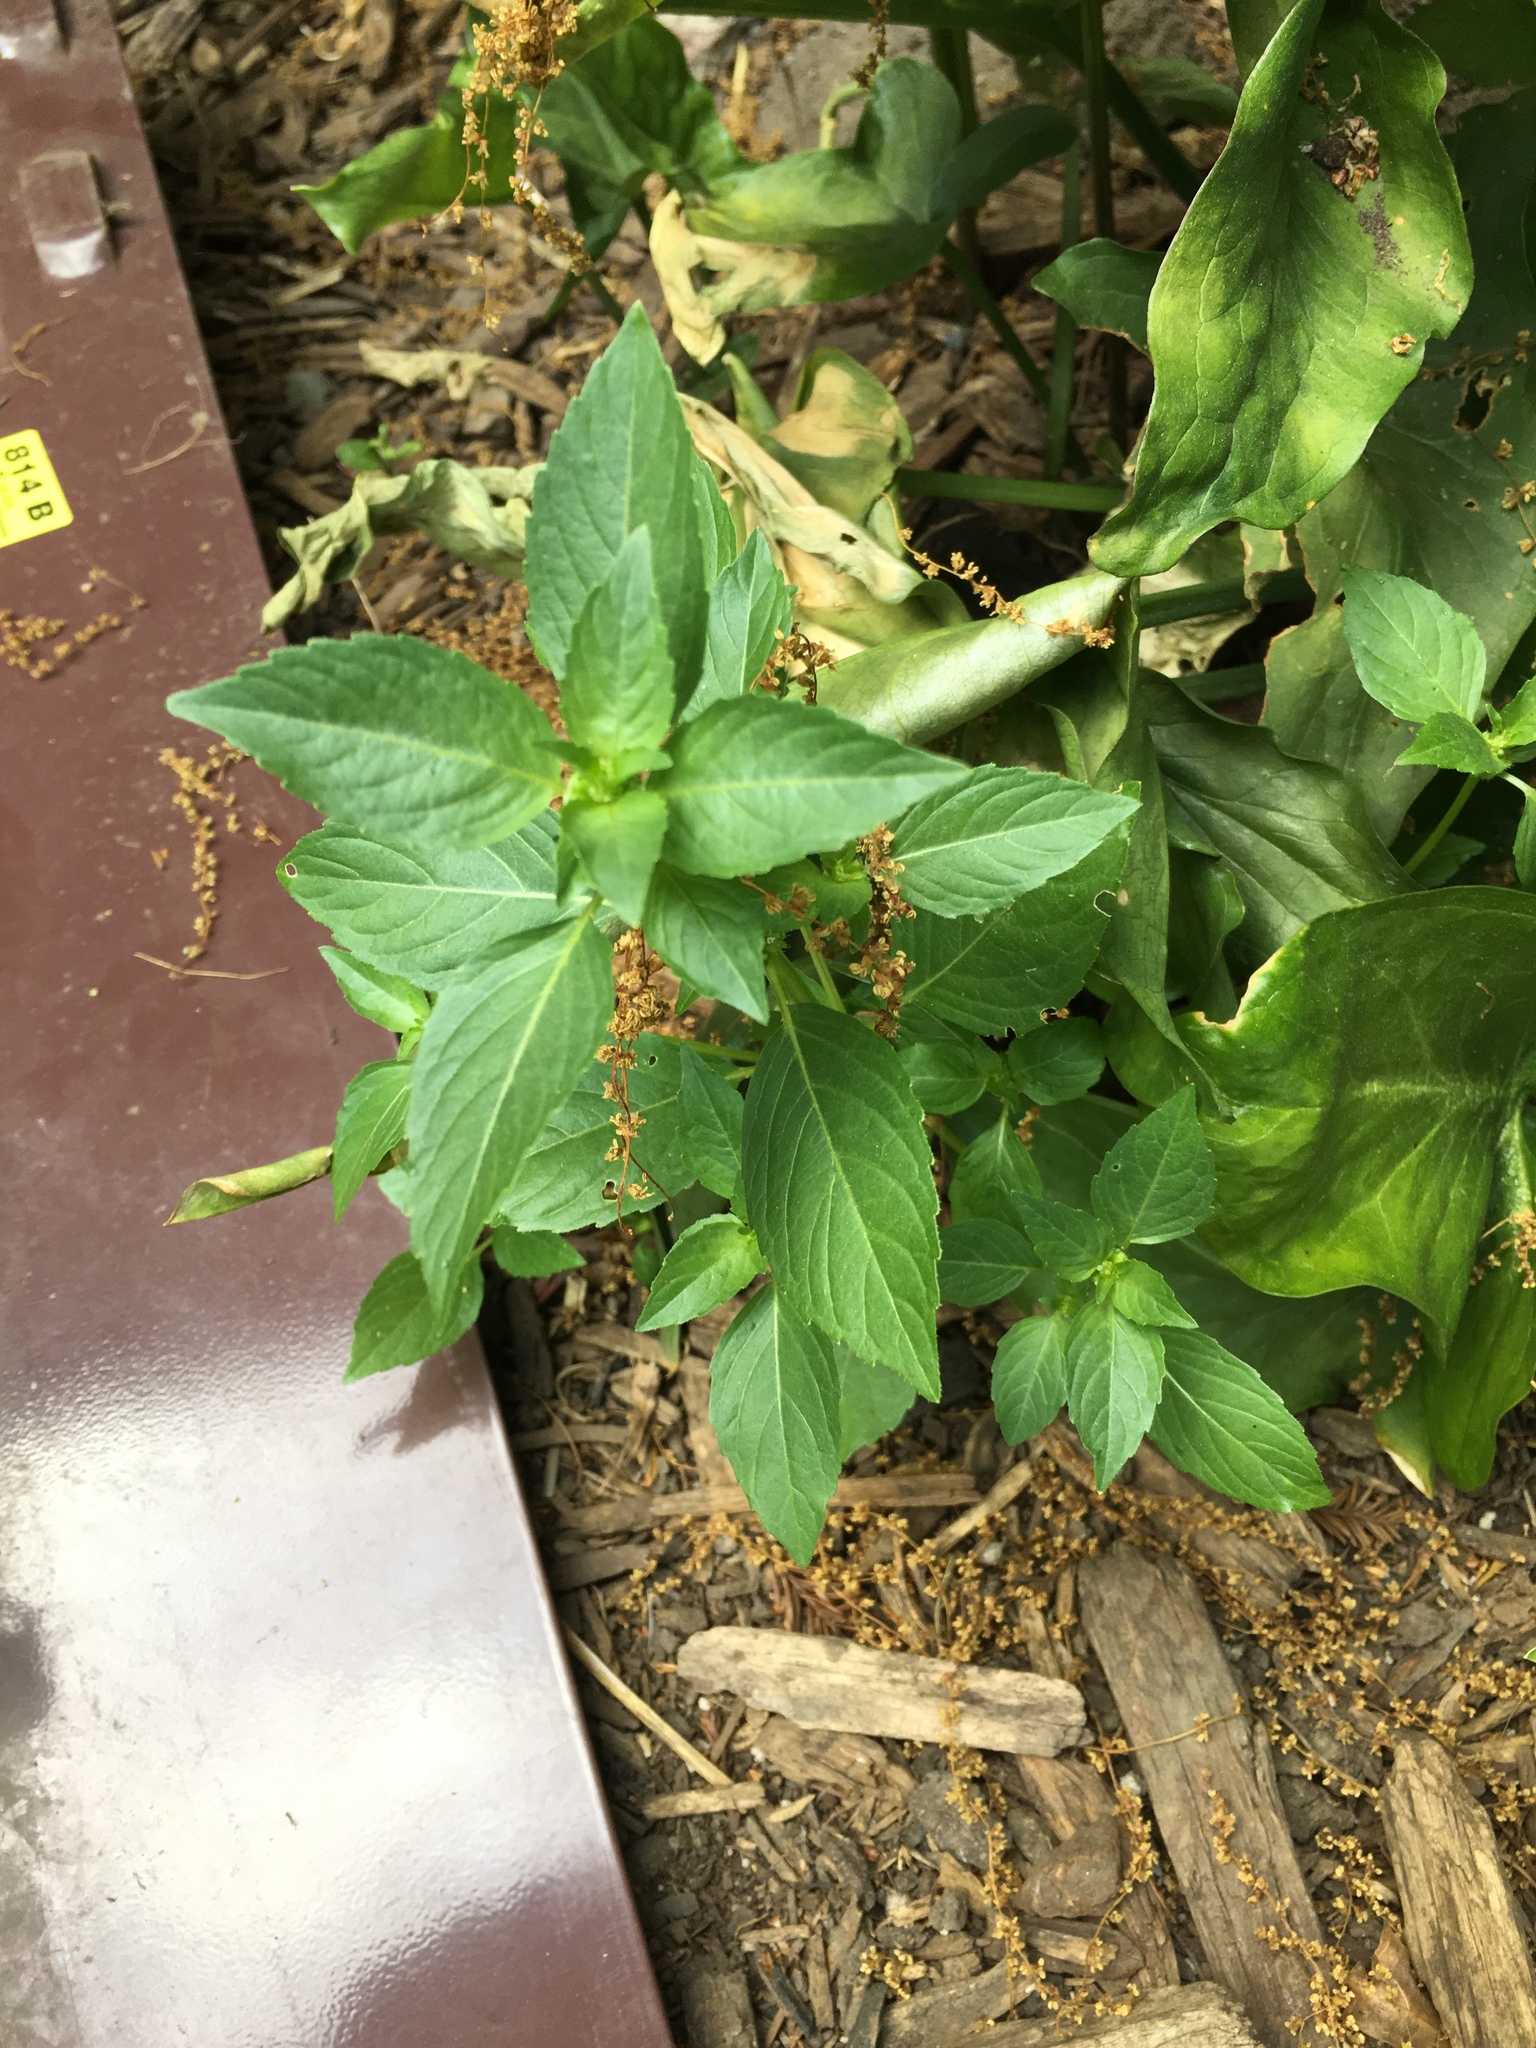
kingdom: Plantae
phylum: Tracheophyta
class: Magnoliopsida
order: Malpighiales
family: Euphorbiaceae
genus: Mercurialis
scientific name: Mercurialis annua
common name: Annual mercury
